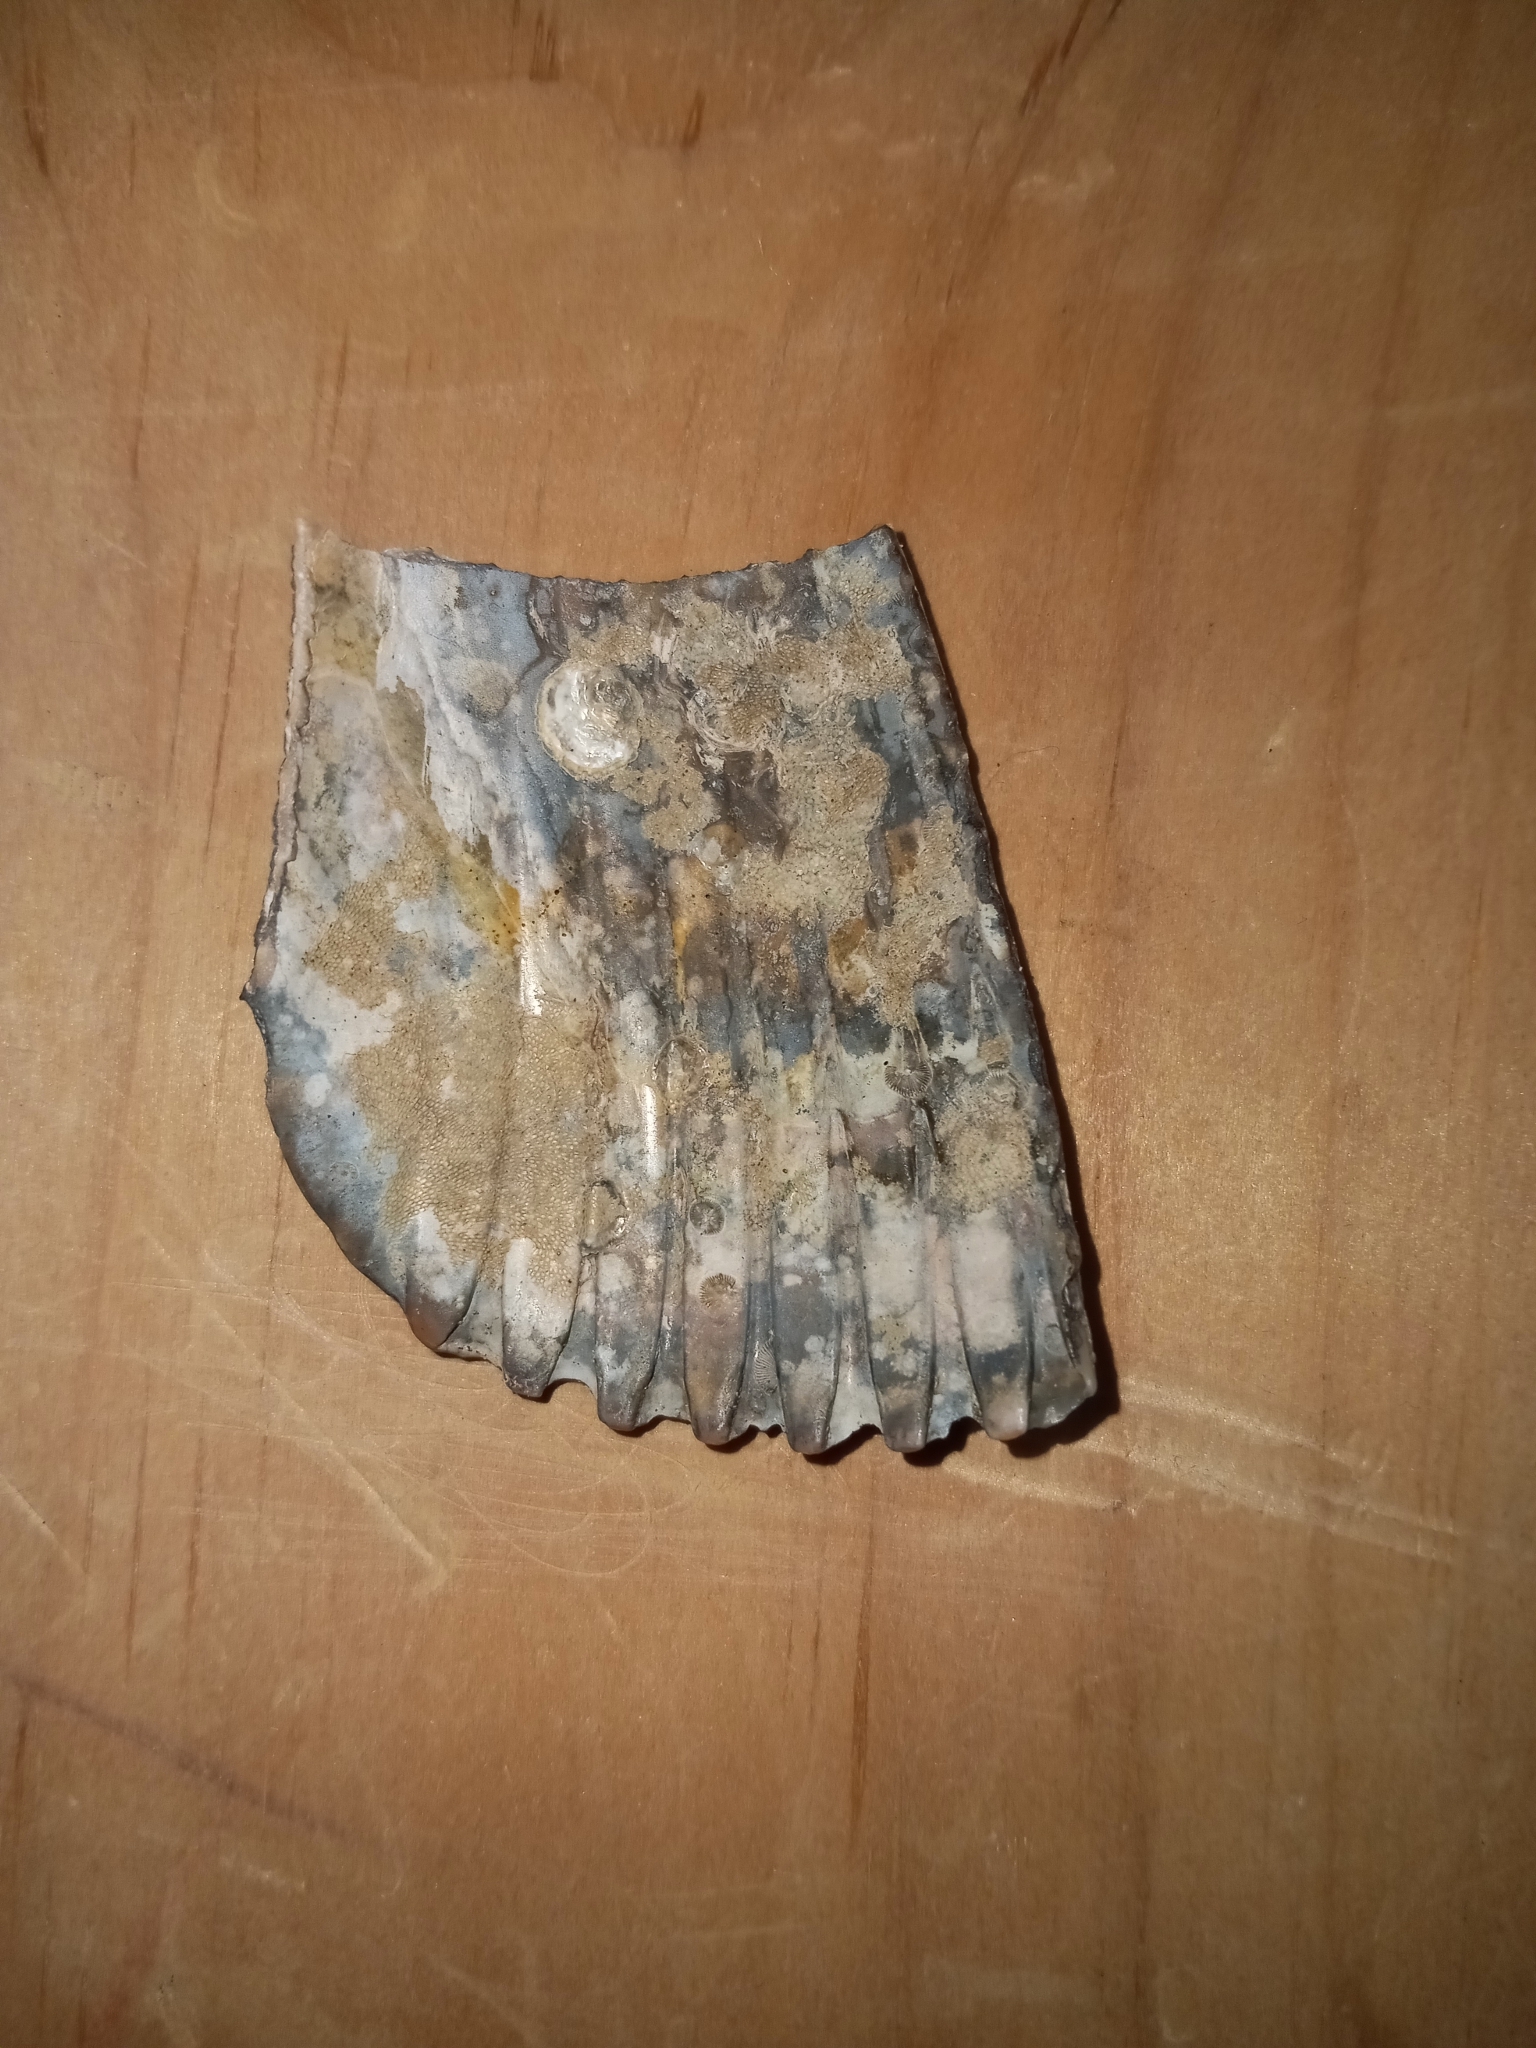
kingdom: Animalia
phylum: Mollusca
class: Bivalvia
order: Cardiida
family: Cardiidae
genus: Dinocardium
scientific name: Dinocardium robustum
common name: Atlantic giant cockle
